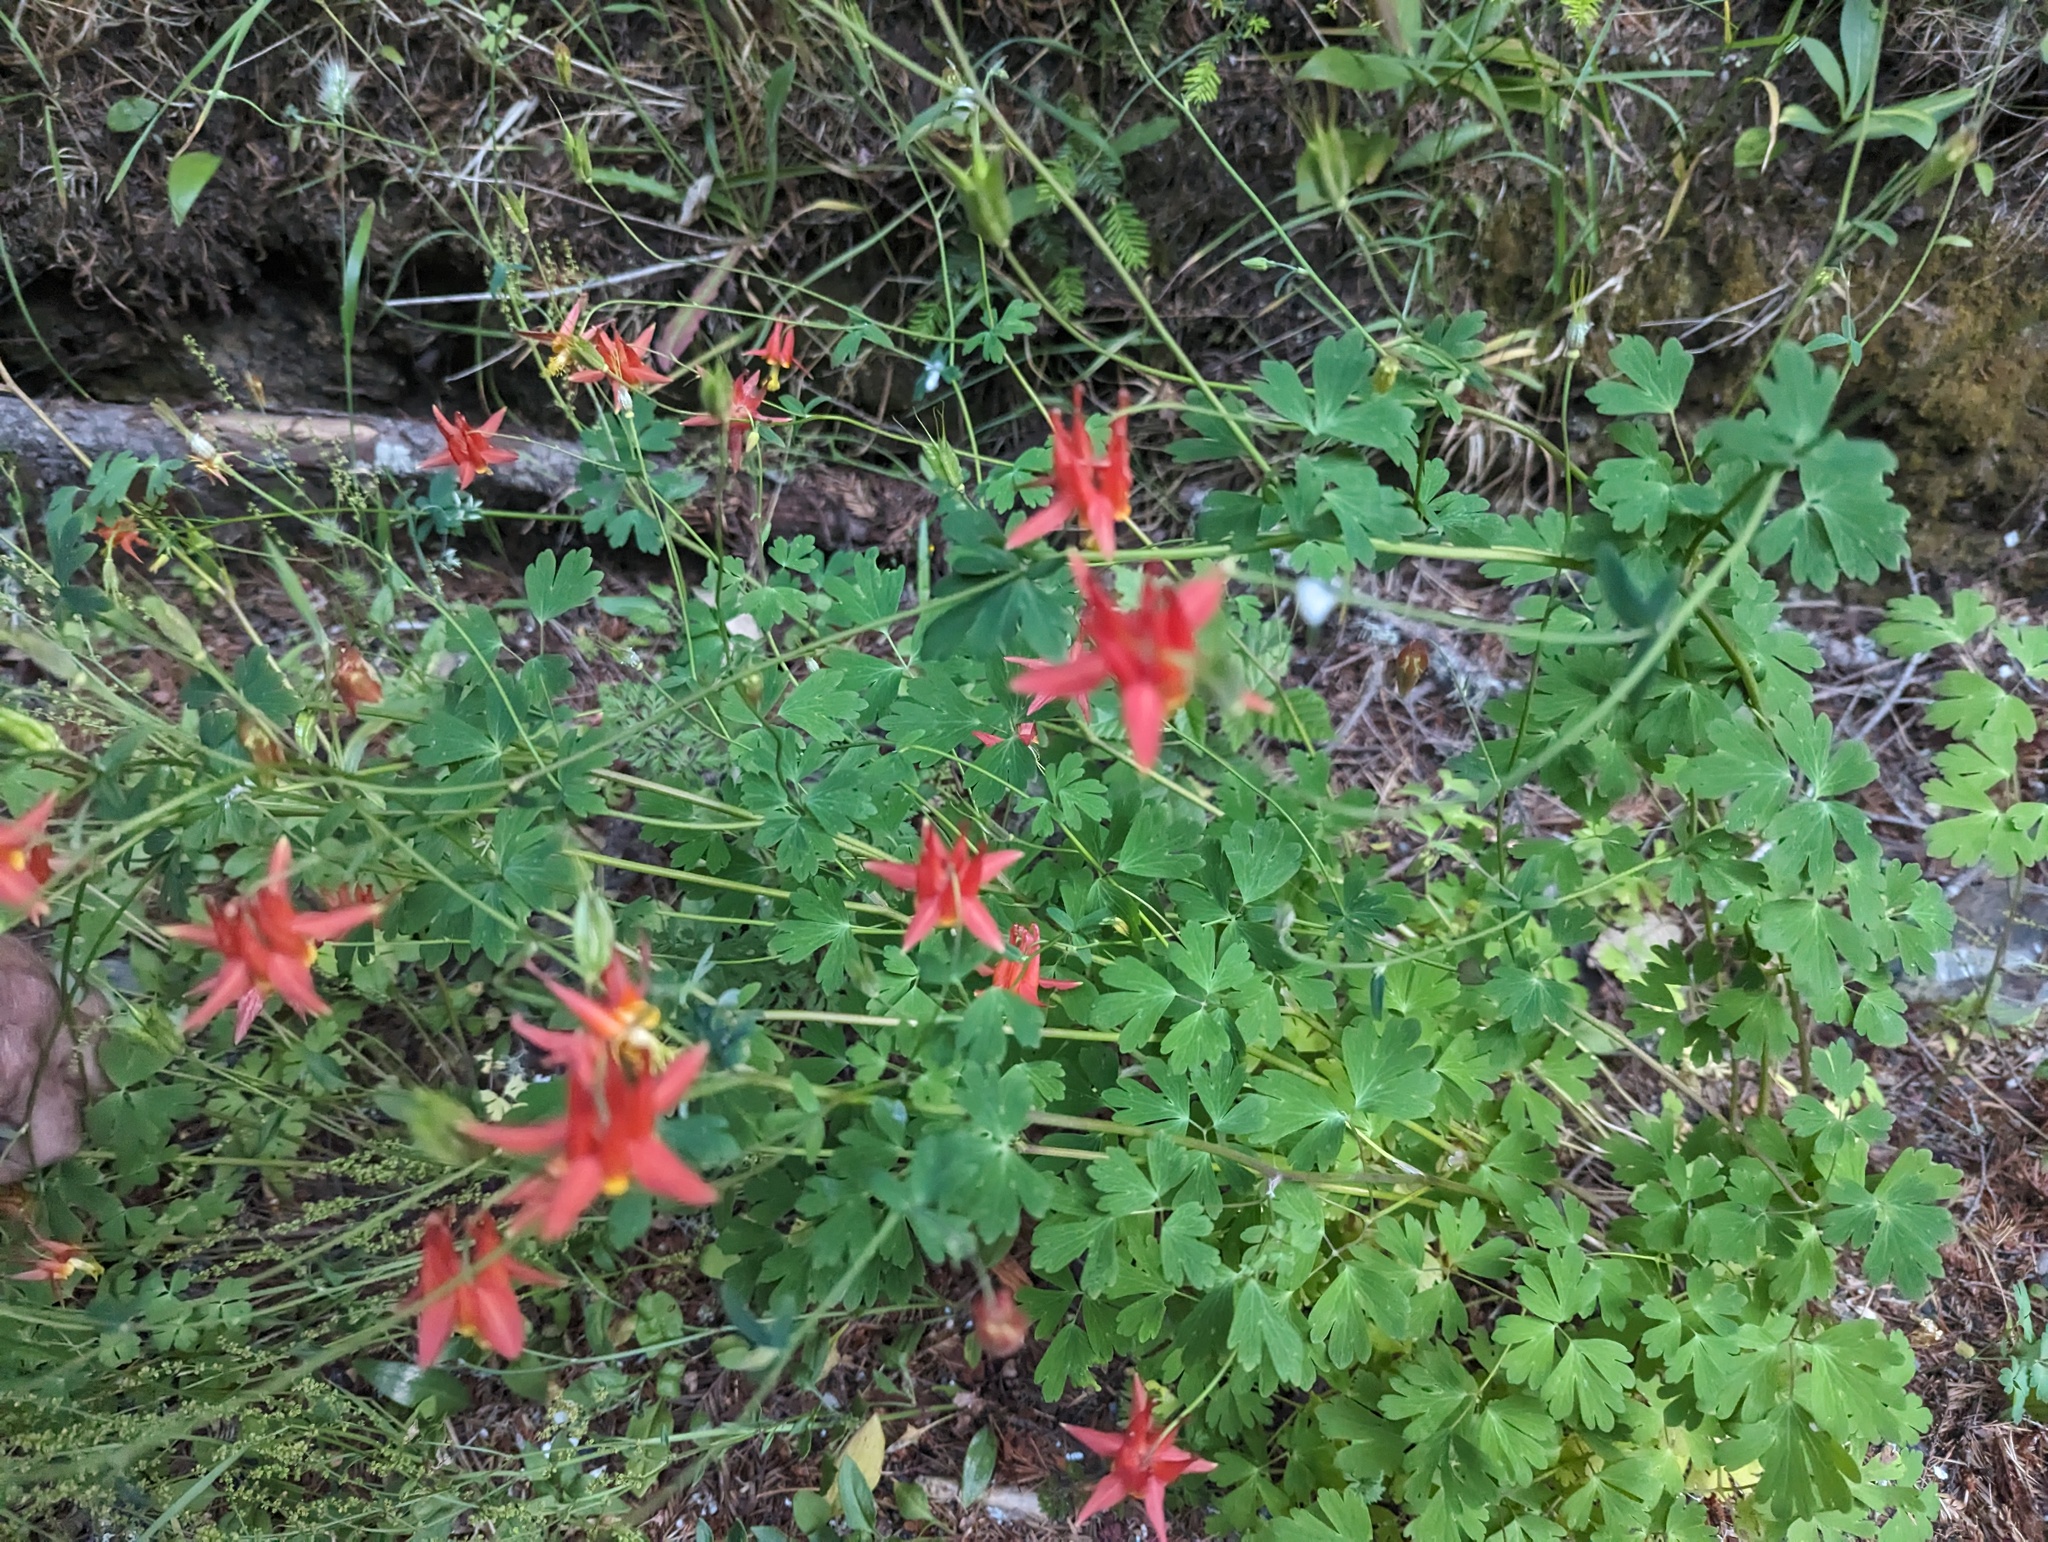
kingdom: Plantae
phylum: Tracheophyta
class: Magnoliopsida
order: Ranunculales
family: Ranunculaceae
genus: Aquilegia
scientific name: Aquilegia formosa
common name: Sitka columbine
